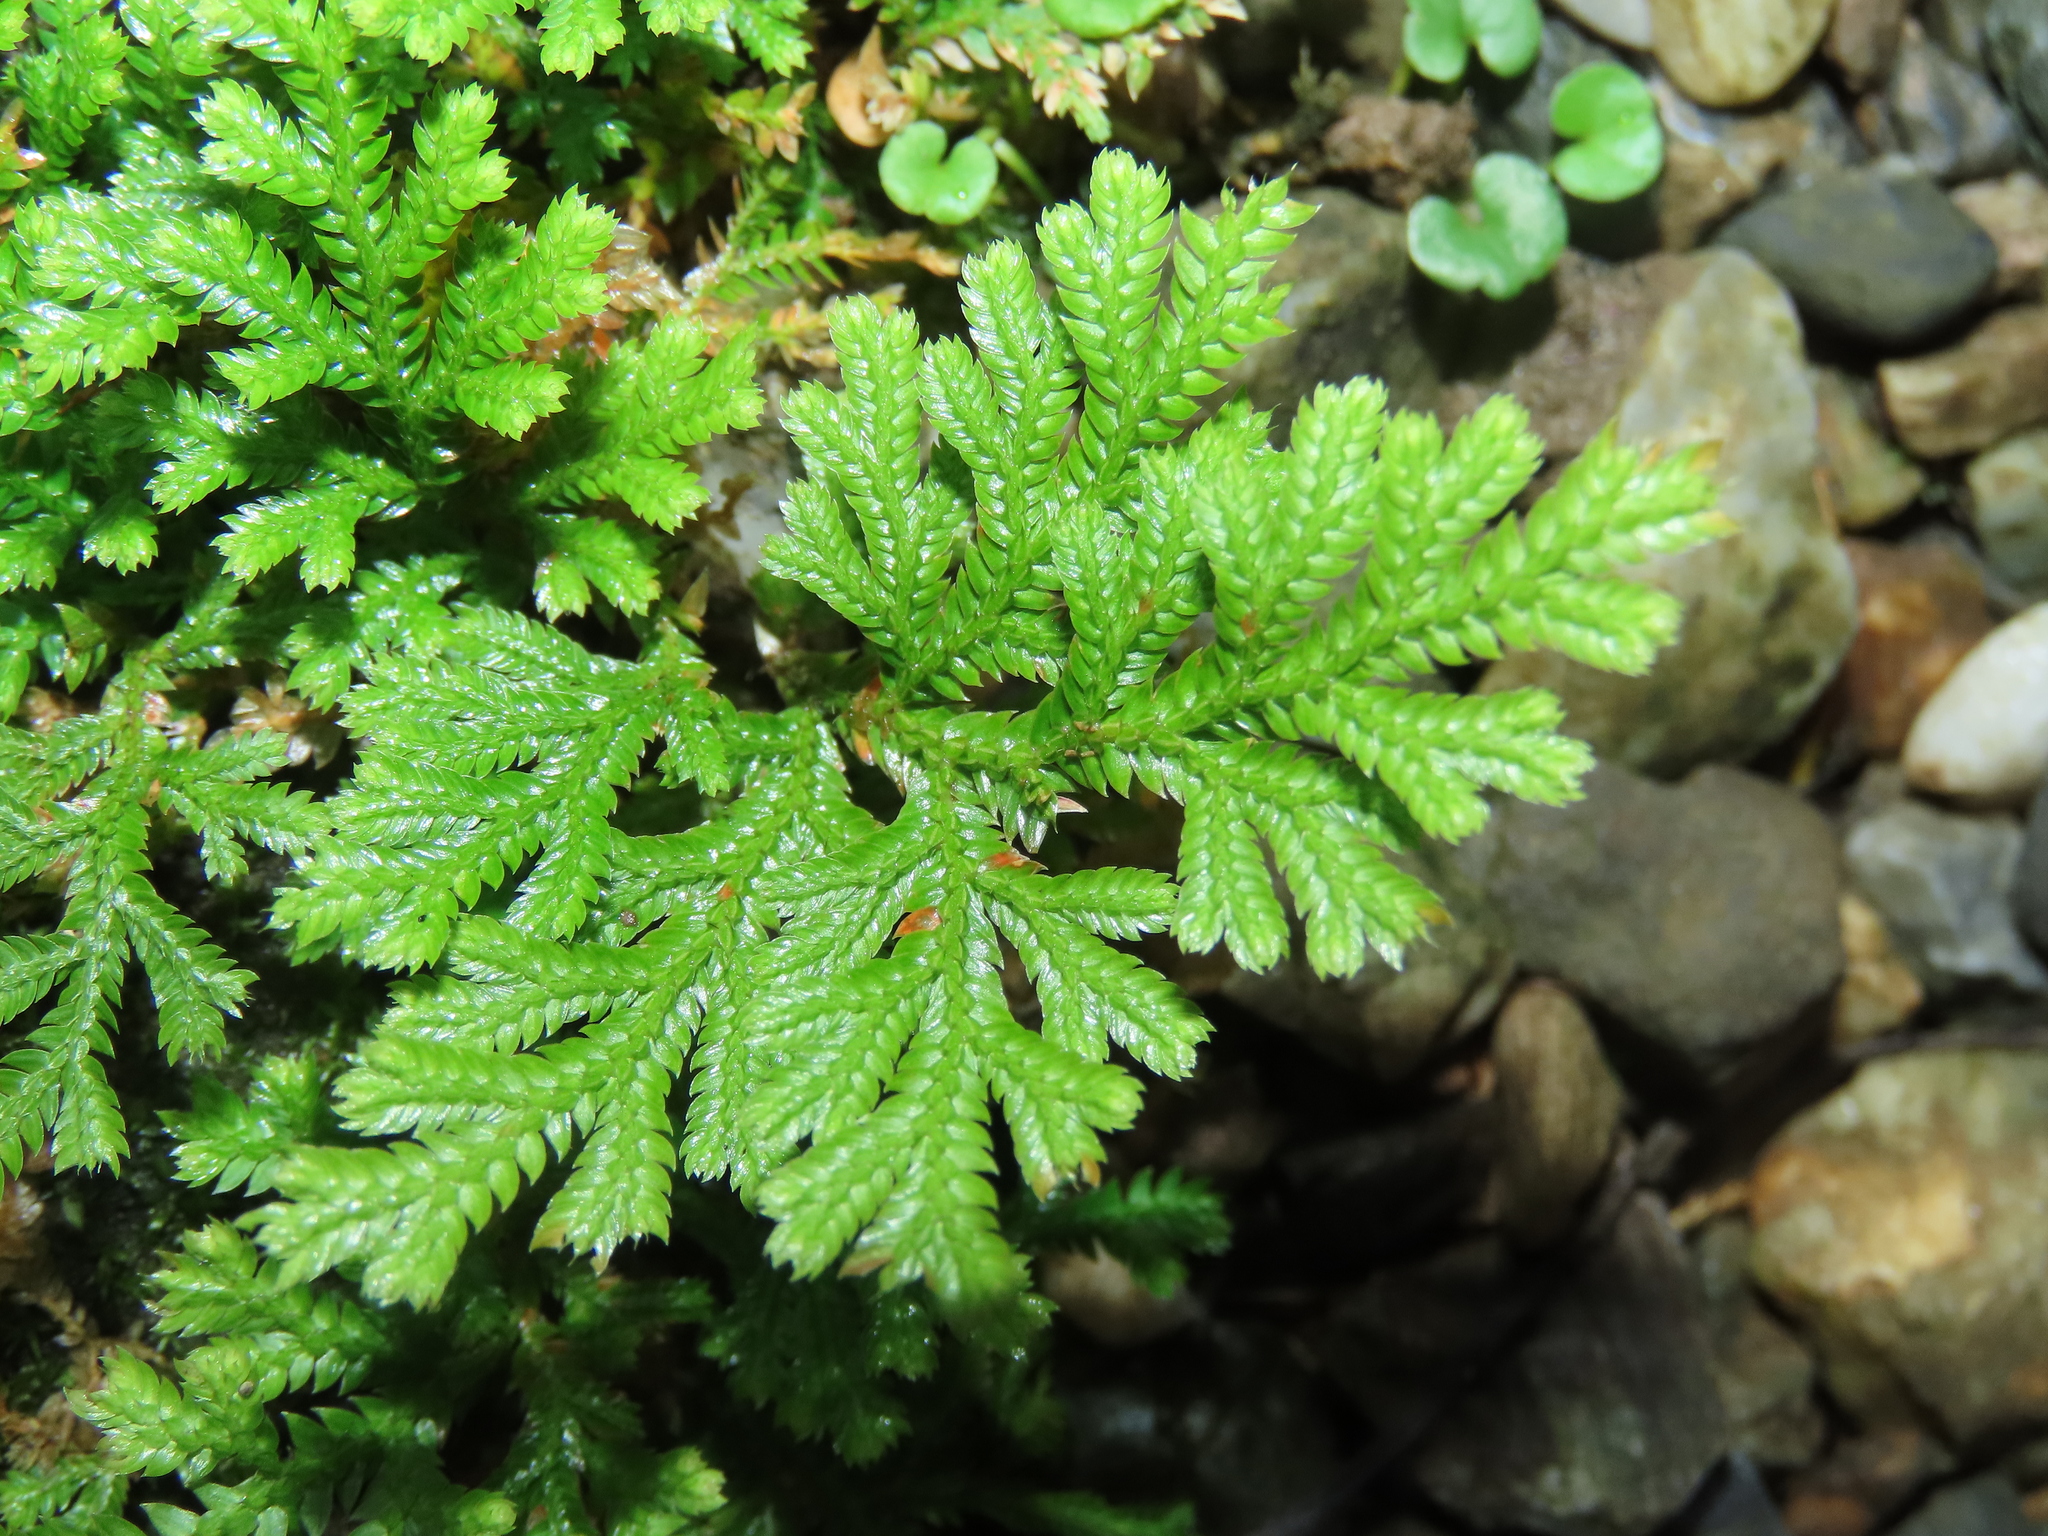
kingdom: Plantae
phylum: Tracheophyta
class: Lycopodiopsida
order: Selaginellales
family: Selaginellaceae
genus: Selaginella
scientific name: Selaginella moellendorffii
